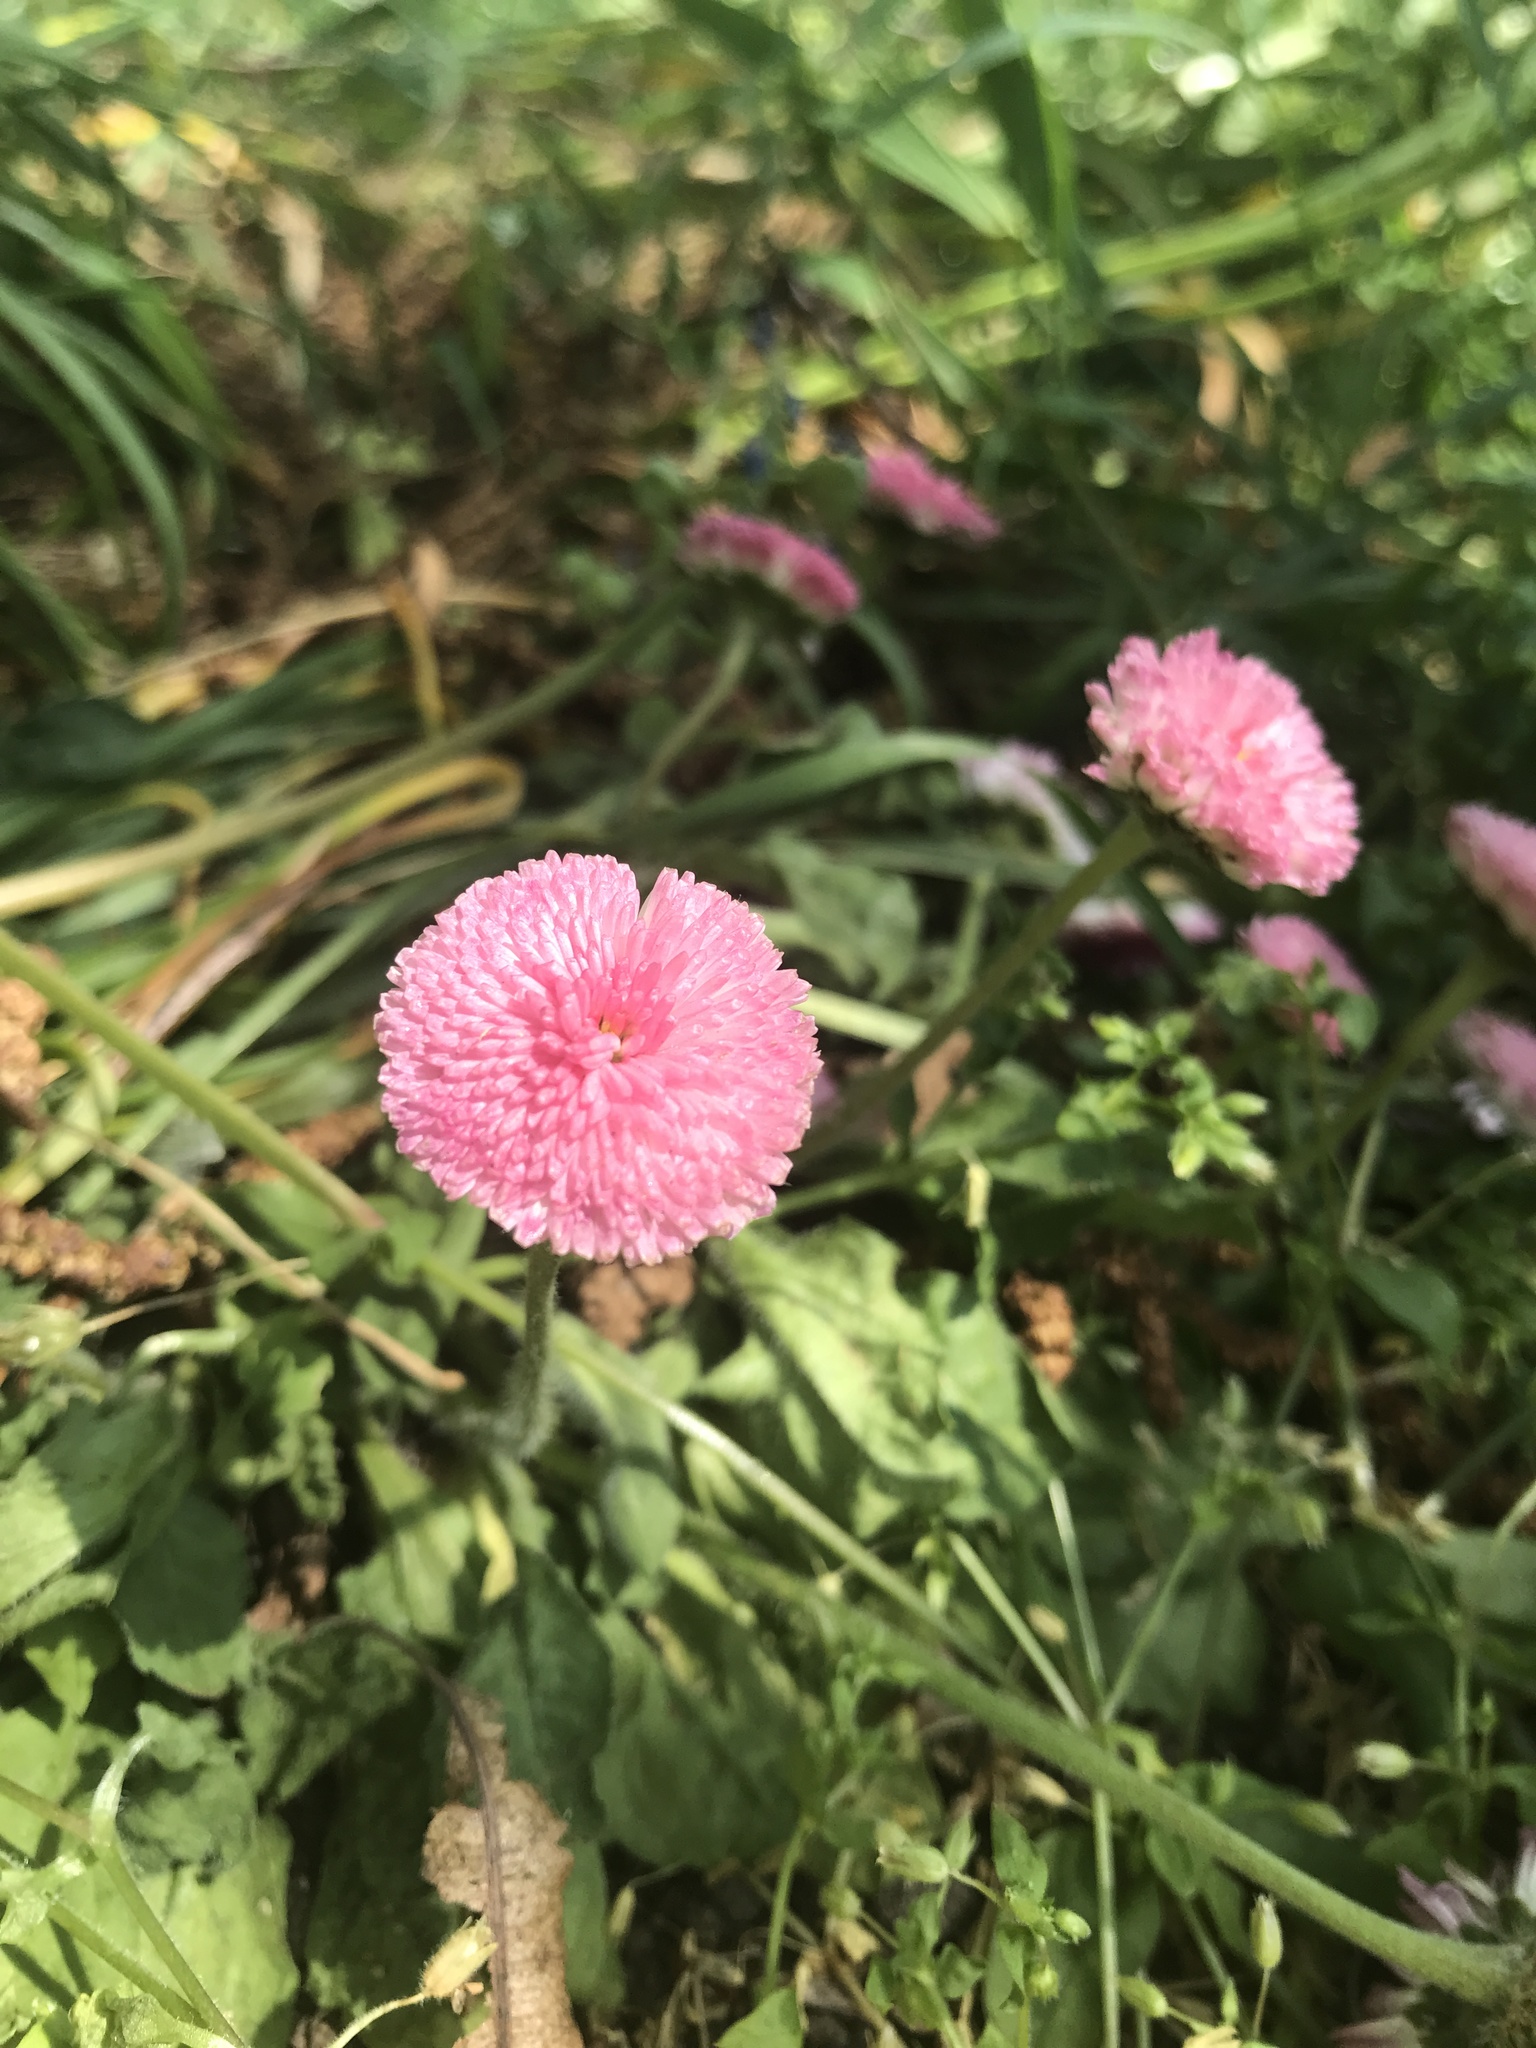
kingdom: Plantae
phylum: Tracheophyta
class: Magnoliopsida
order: Asterales
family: Asteraceae
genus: Bellis
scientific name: Bellis perennis
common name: Lawndaisy
